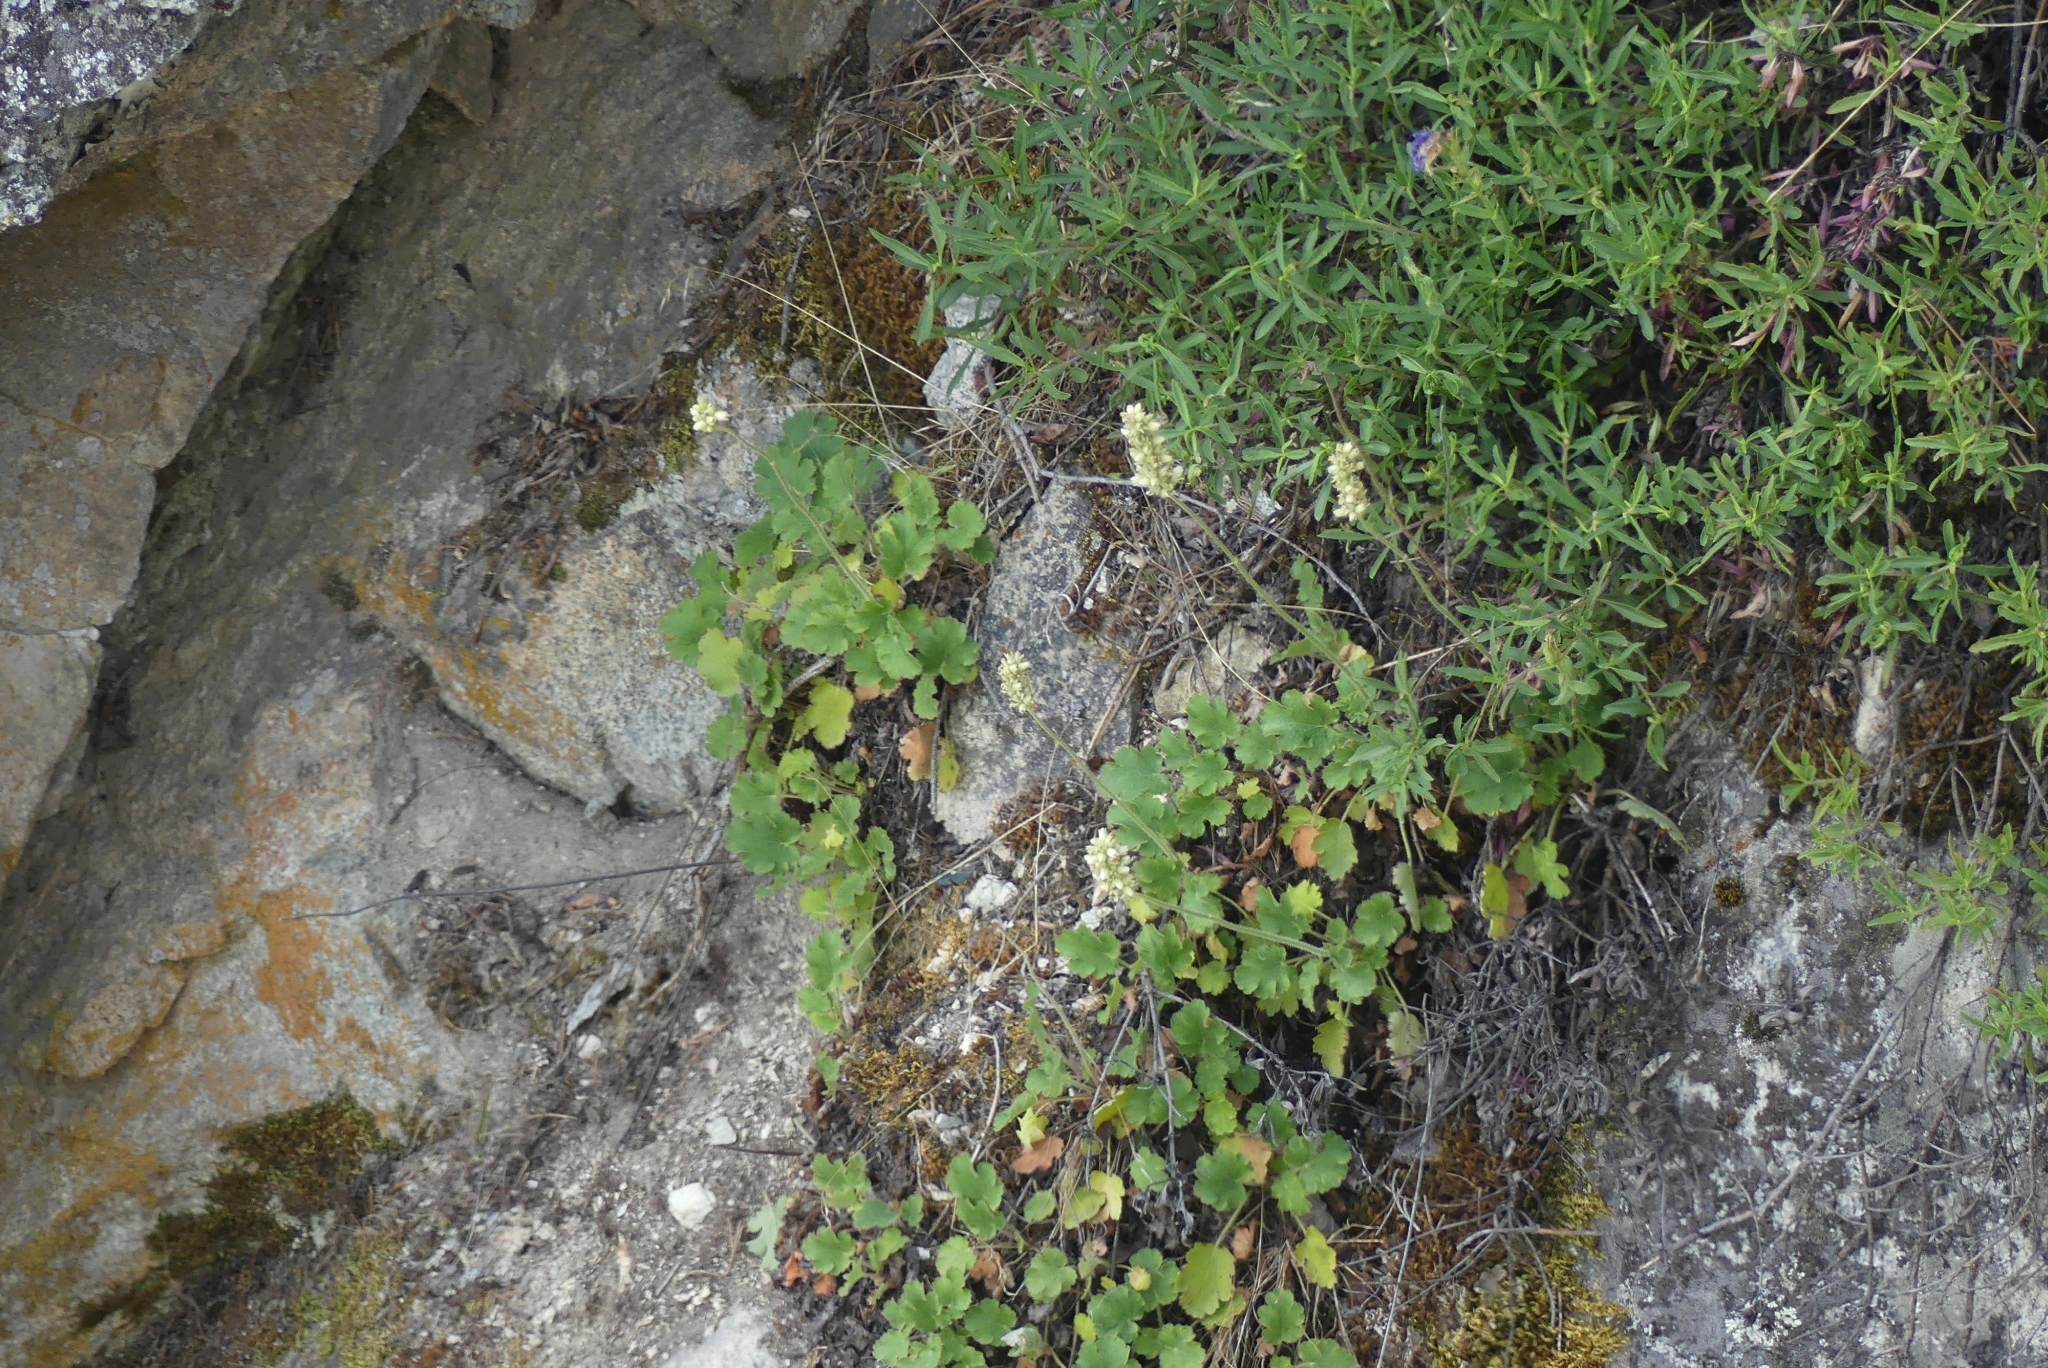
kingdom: Plantae
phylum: Tracheophyta
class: Magnoliopsida
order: Saxifragales
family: Saxifragaceae
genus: Heuchera
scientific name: Heuchera cylindrica
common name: Mat alumroot
